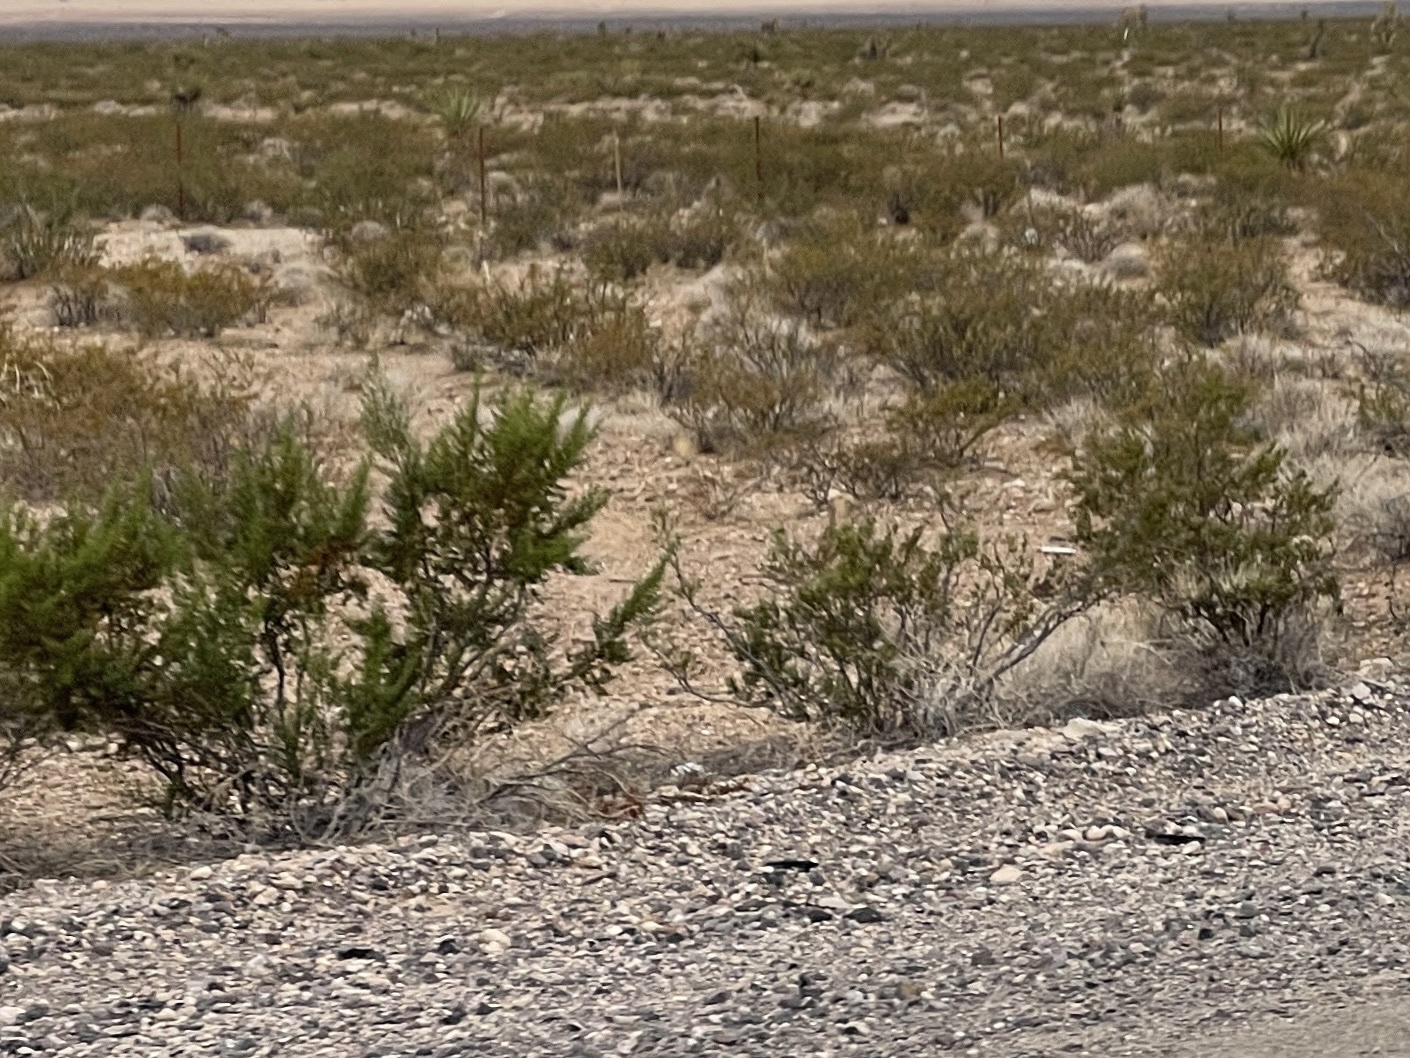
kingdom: Plantae
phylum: Tracheophyta
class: Magnoliopsida
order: Zygophyllales
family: Zygophyllaceae
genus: Larrea
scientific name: Larrea tridentata
